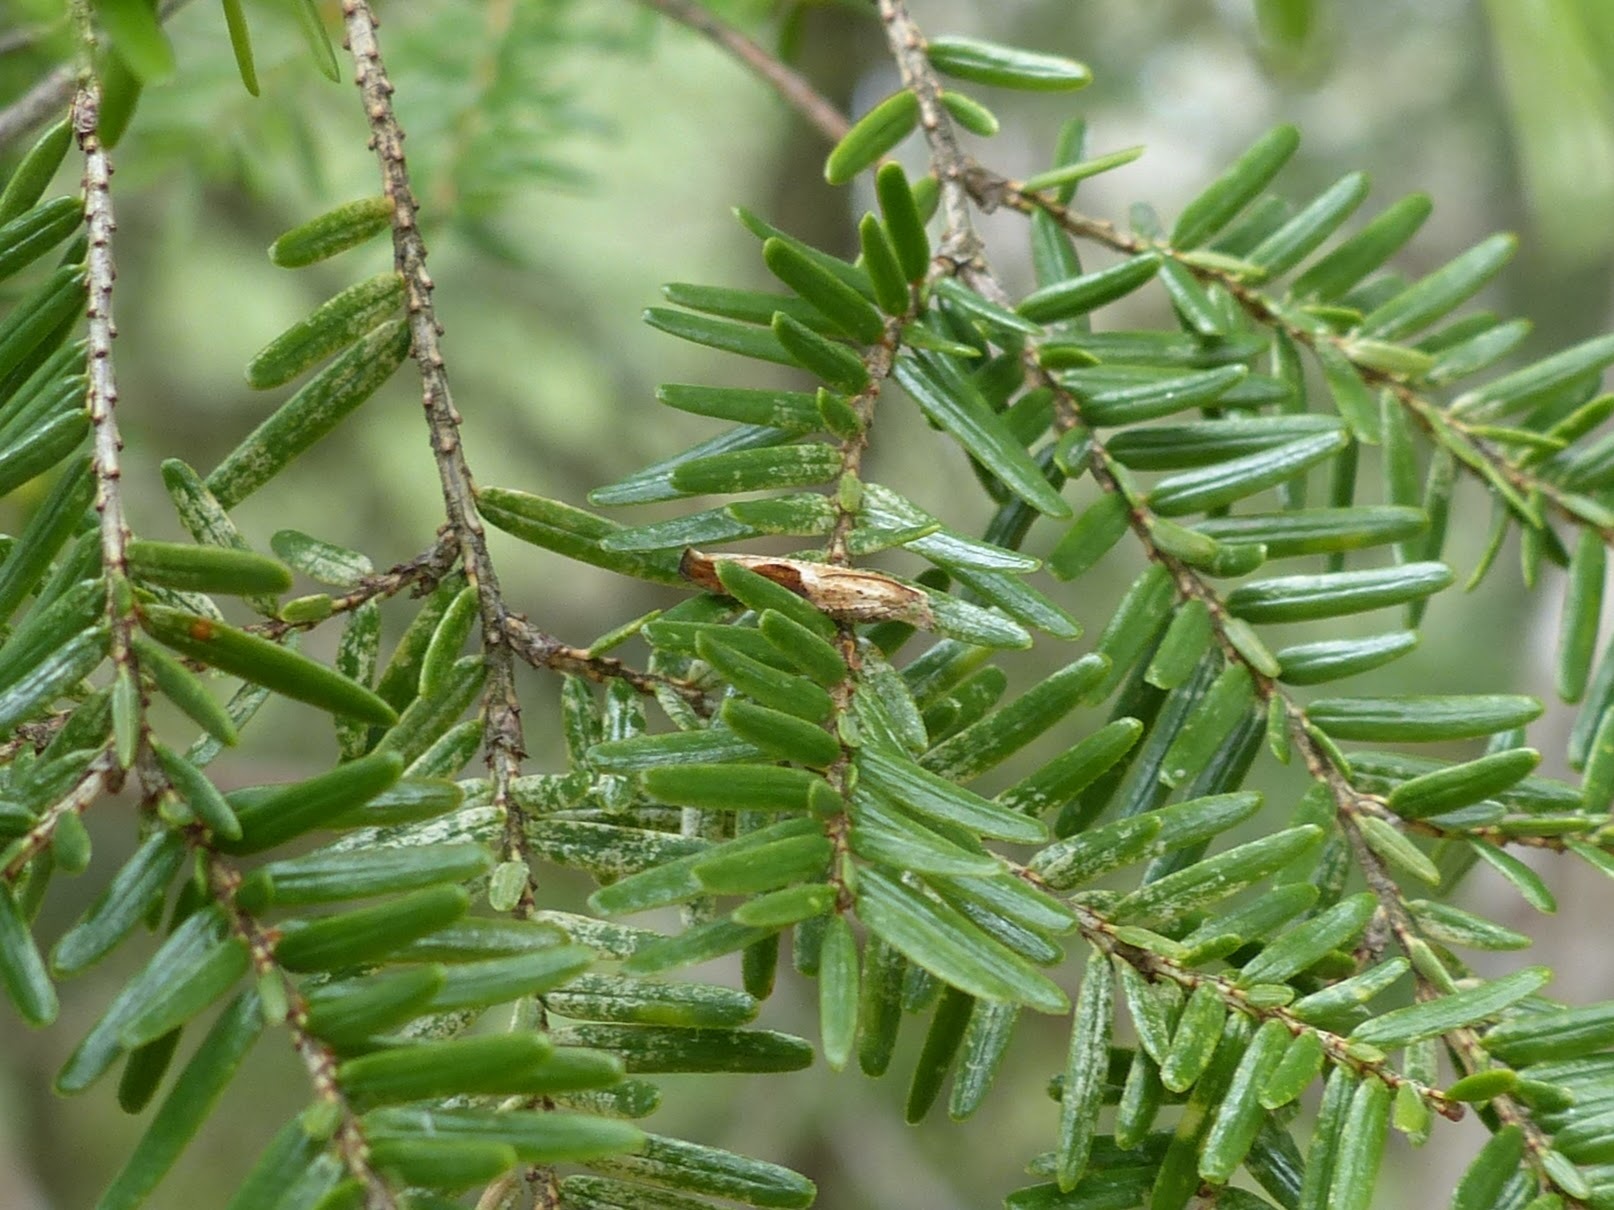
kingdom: Animalia
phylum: Arthropoda
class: Insecta
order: Lepidoptera
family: Tortricidae
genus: Pseudexentera
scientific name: Pseudexentera virginiana
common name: Virginia pseudexentera moth
